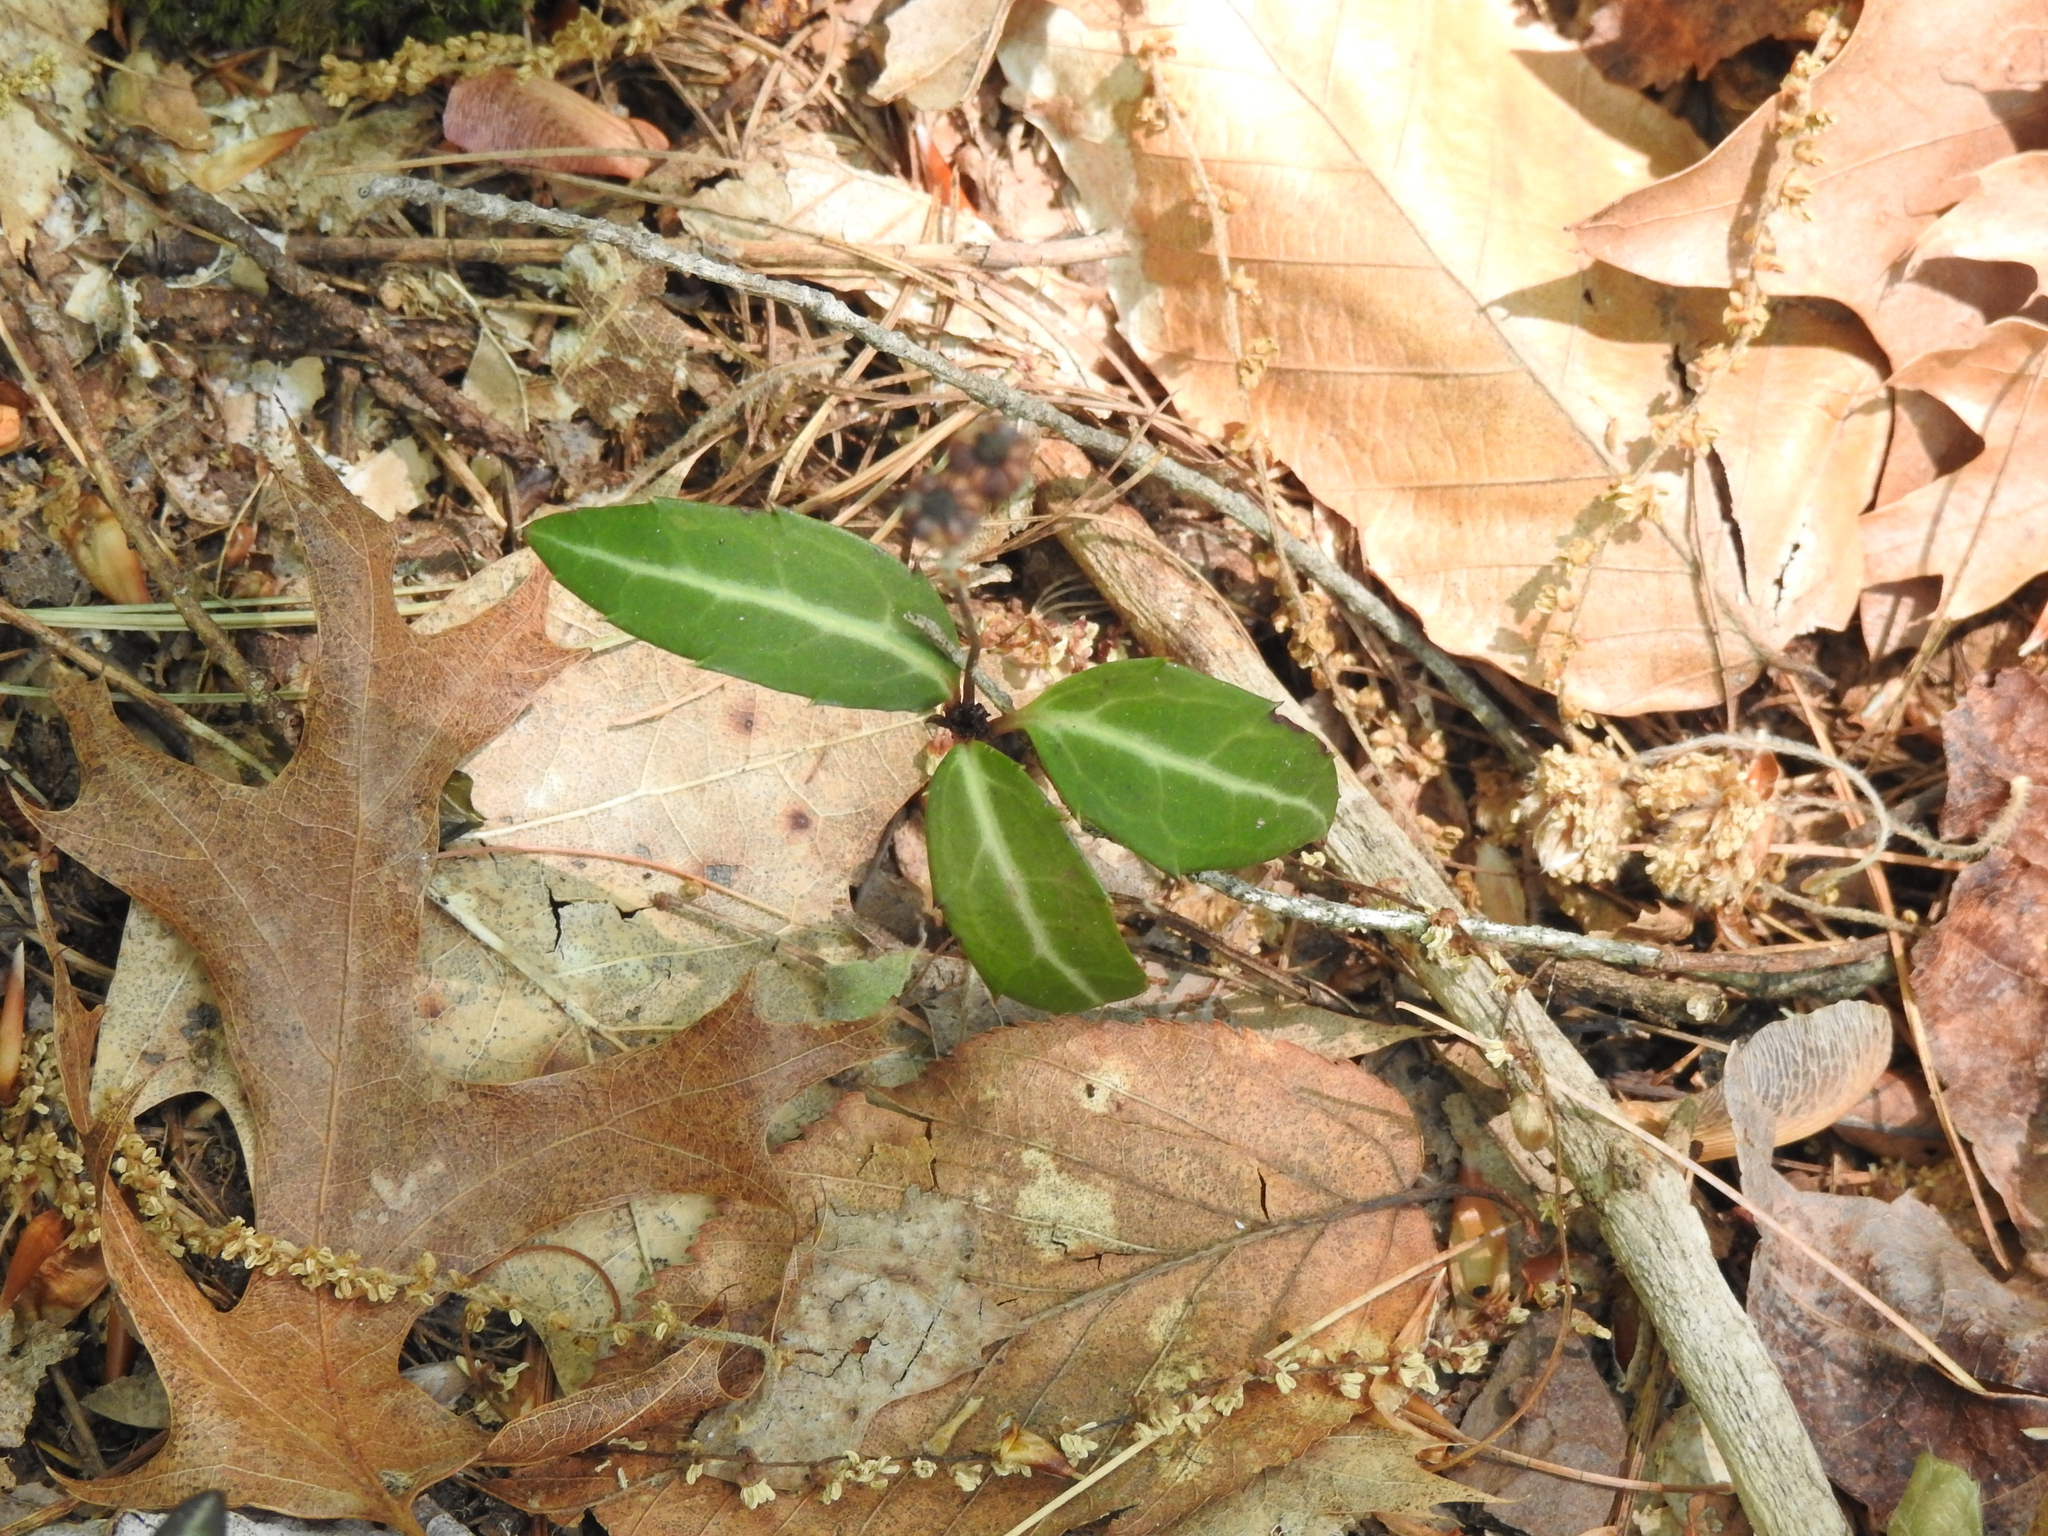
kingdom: Plantae
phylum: Tracheophyta
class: Magnoliopsida
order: Ericales
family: Ericaceae
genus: Chimaphila
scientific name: Chimaphila maculata
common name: Spotted pipsissewa
